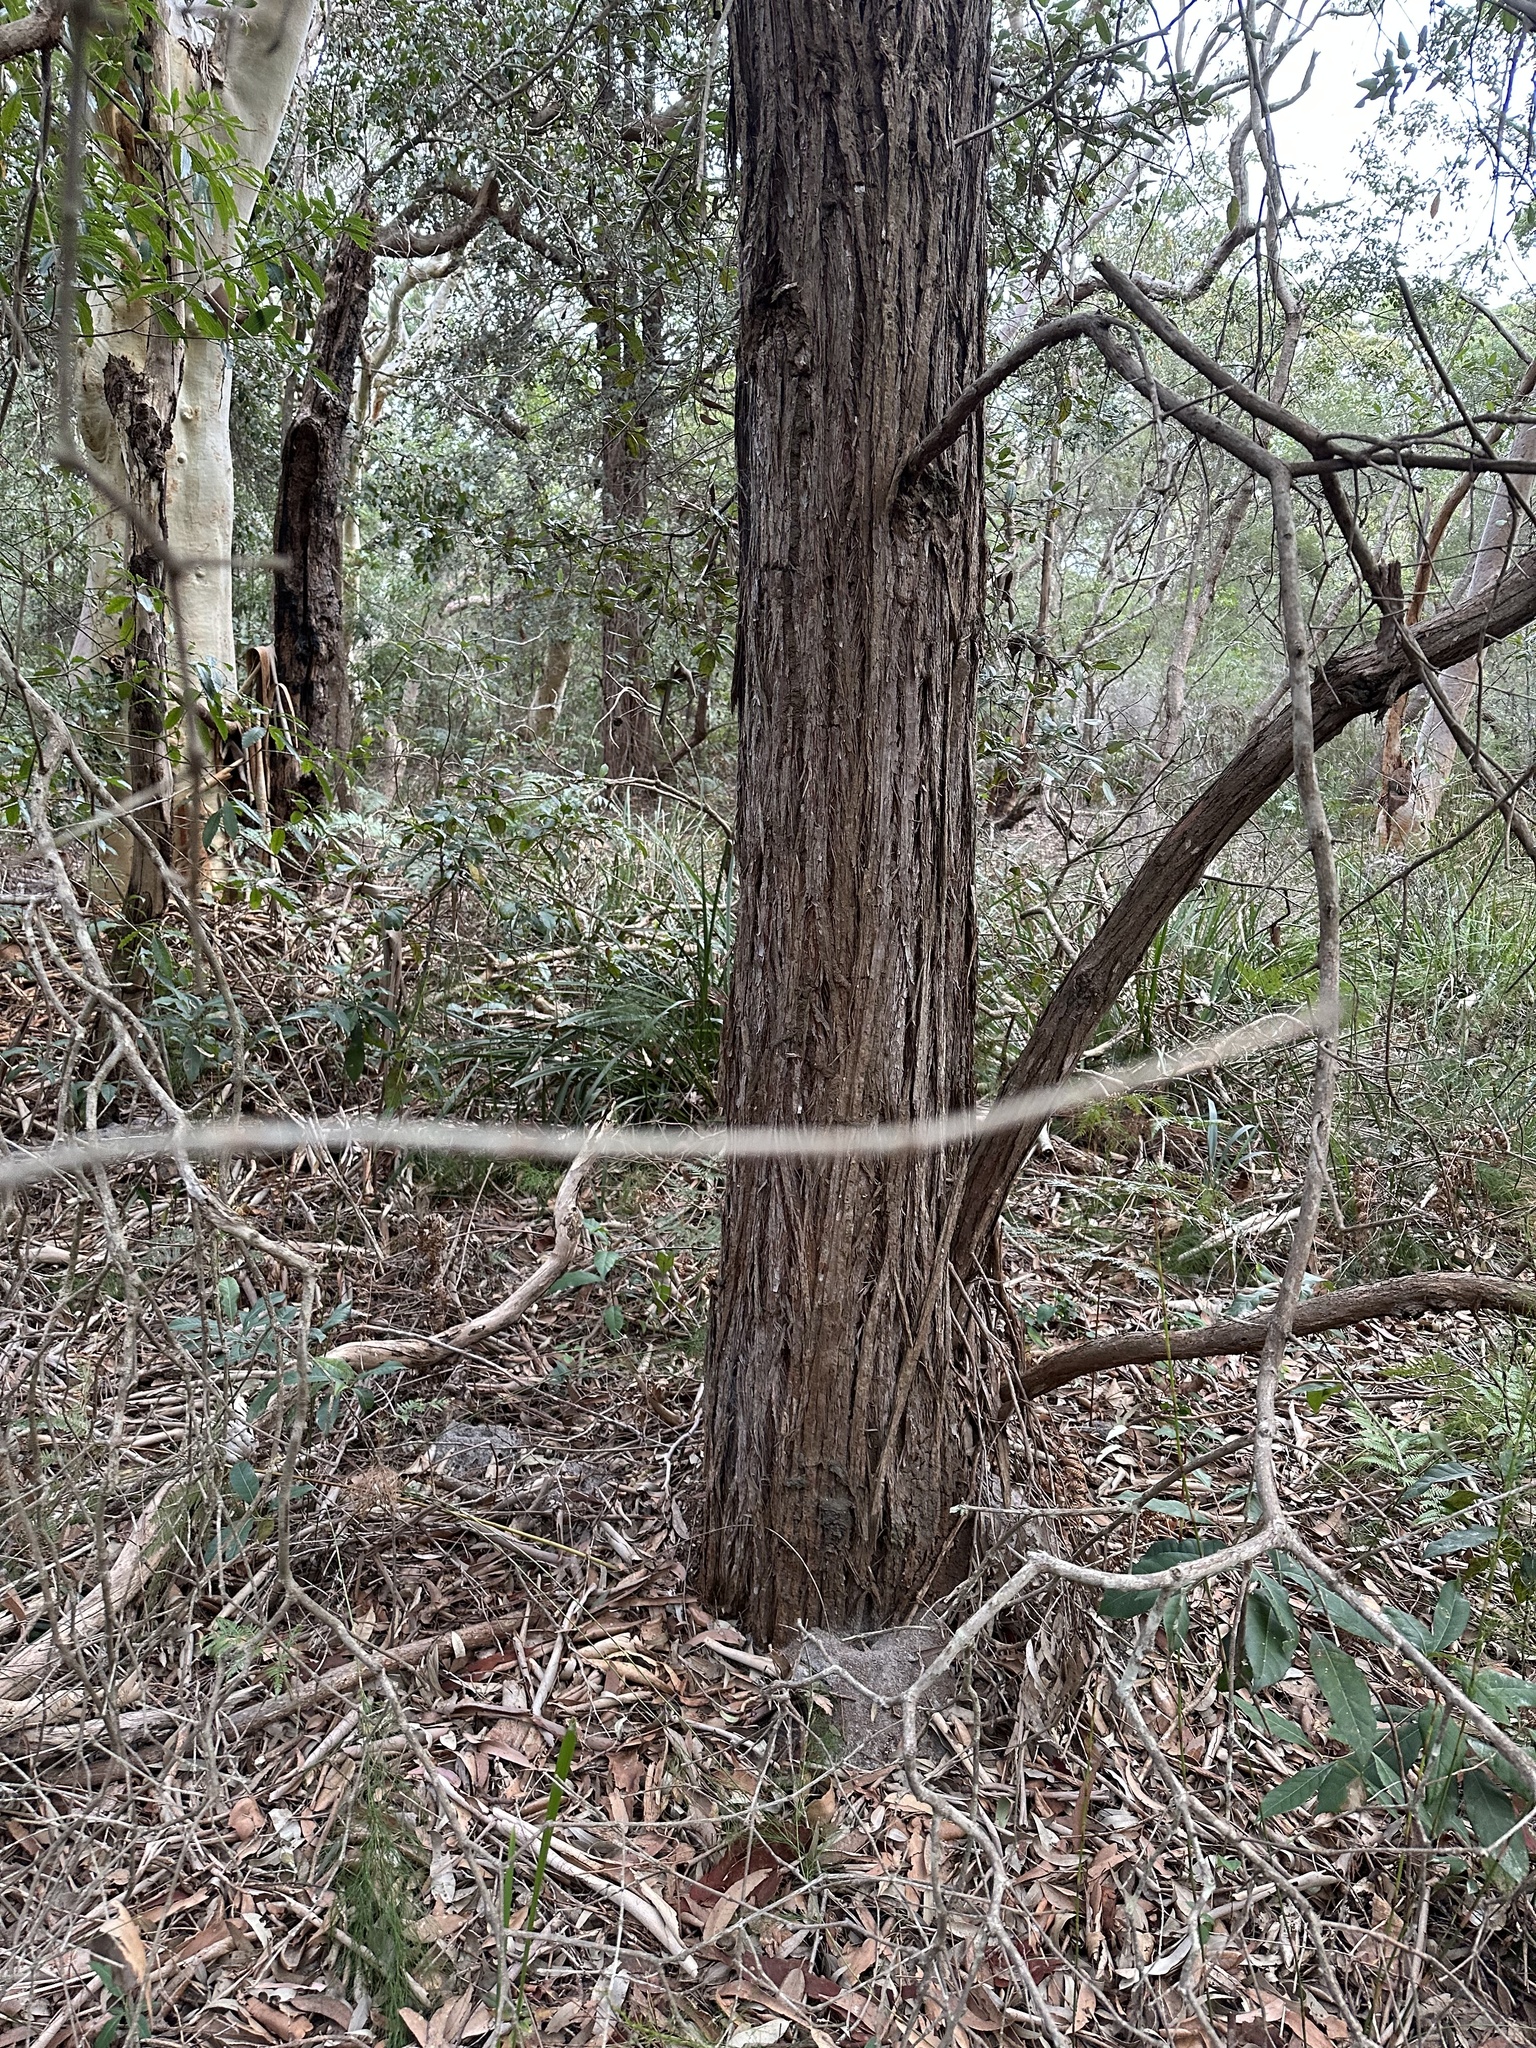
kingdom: Plantae
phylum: Tracheophyta
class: Magnoliopsida
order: Myrtales
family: Myrtaceae
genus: Syncarpia
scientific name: Syncarpia glomulifera
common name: Turpentine tree
